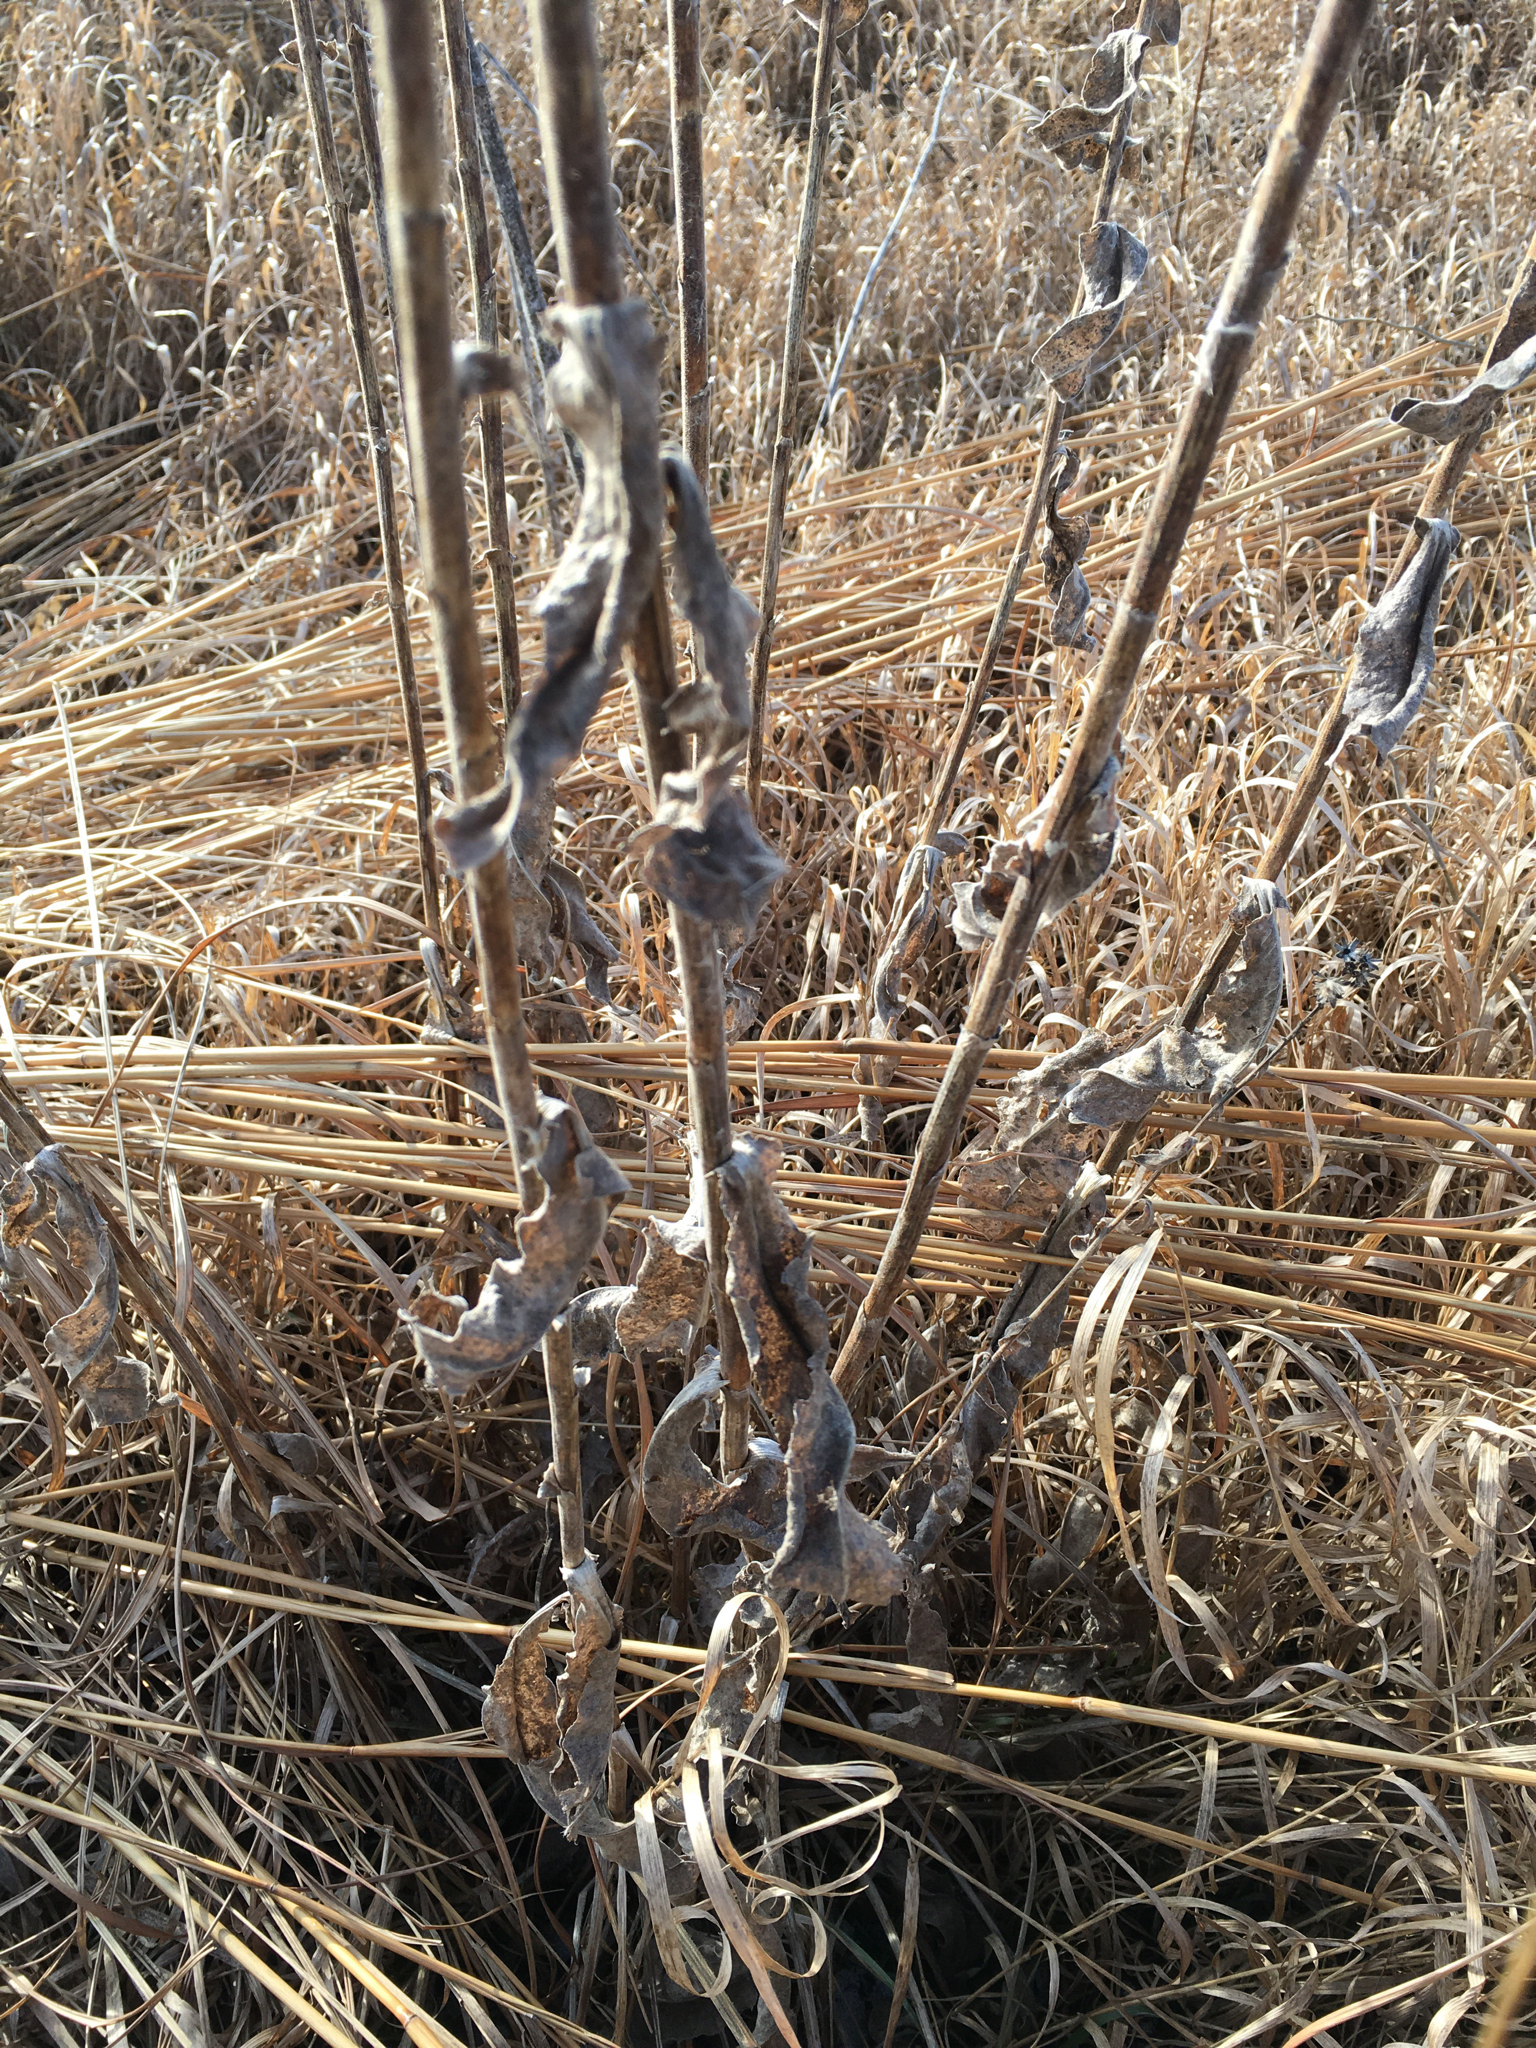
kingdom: Plantae
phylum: Tracheophyta
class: Magnoliopsida
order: Asterales
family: Asteraceae
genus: Solidago
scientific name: Solidago rigida
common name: Rigid goldenrod
